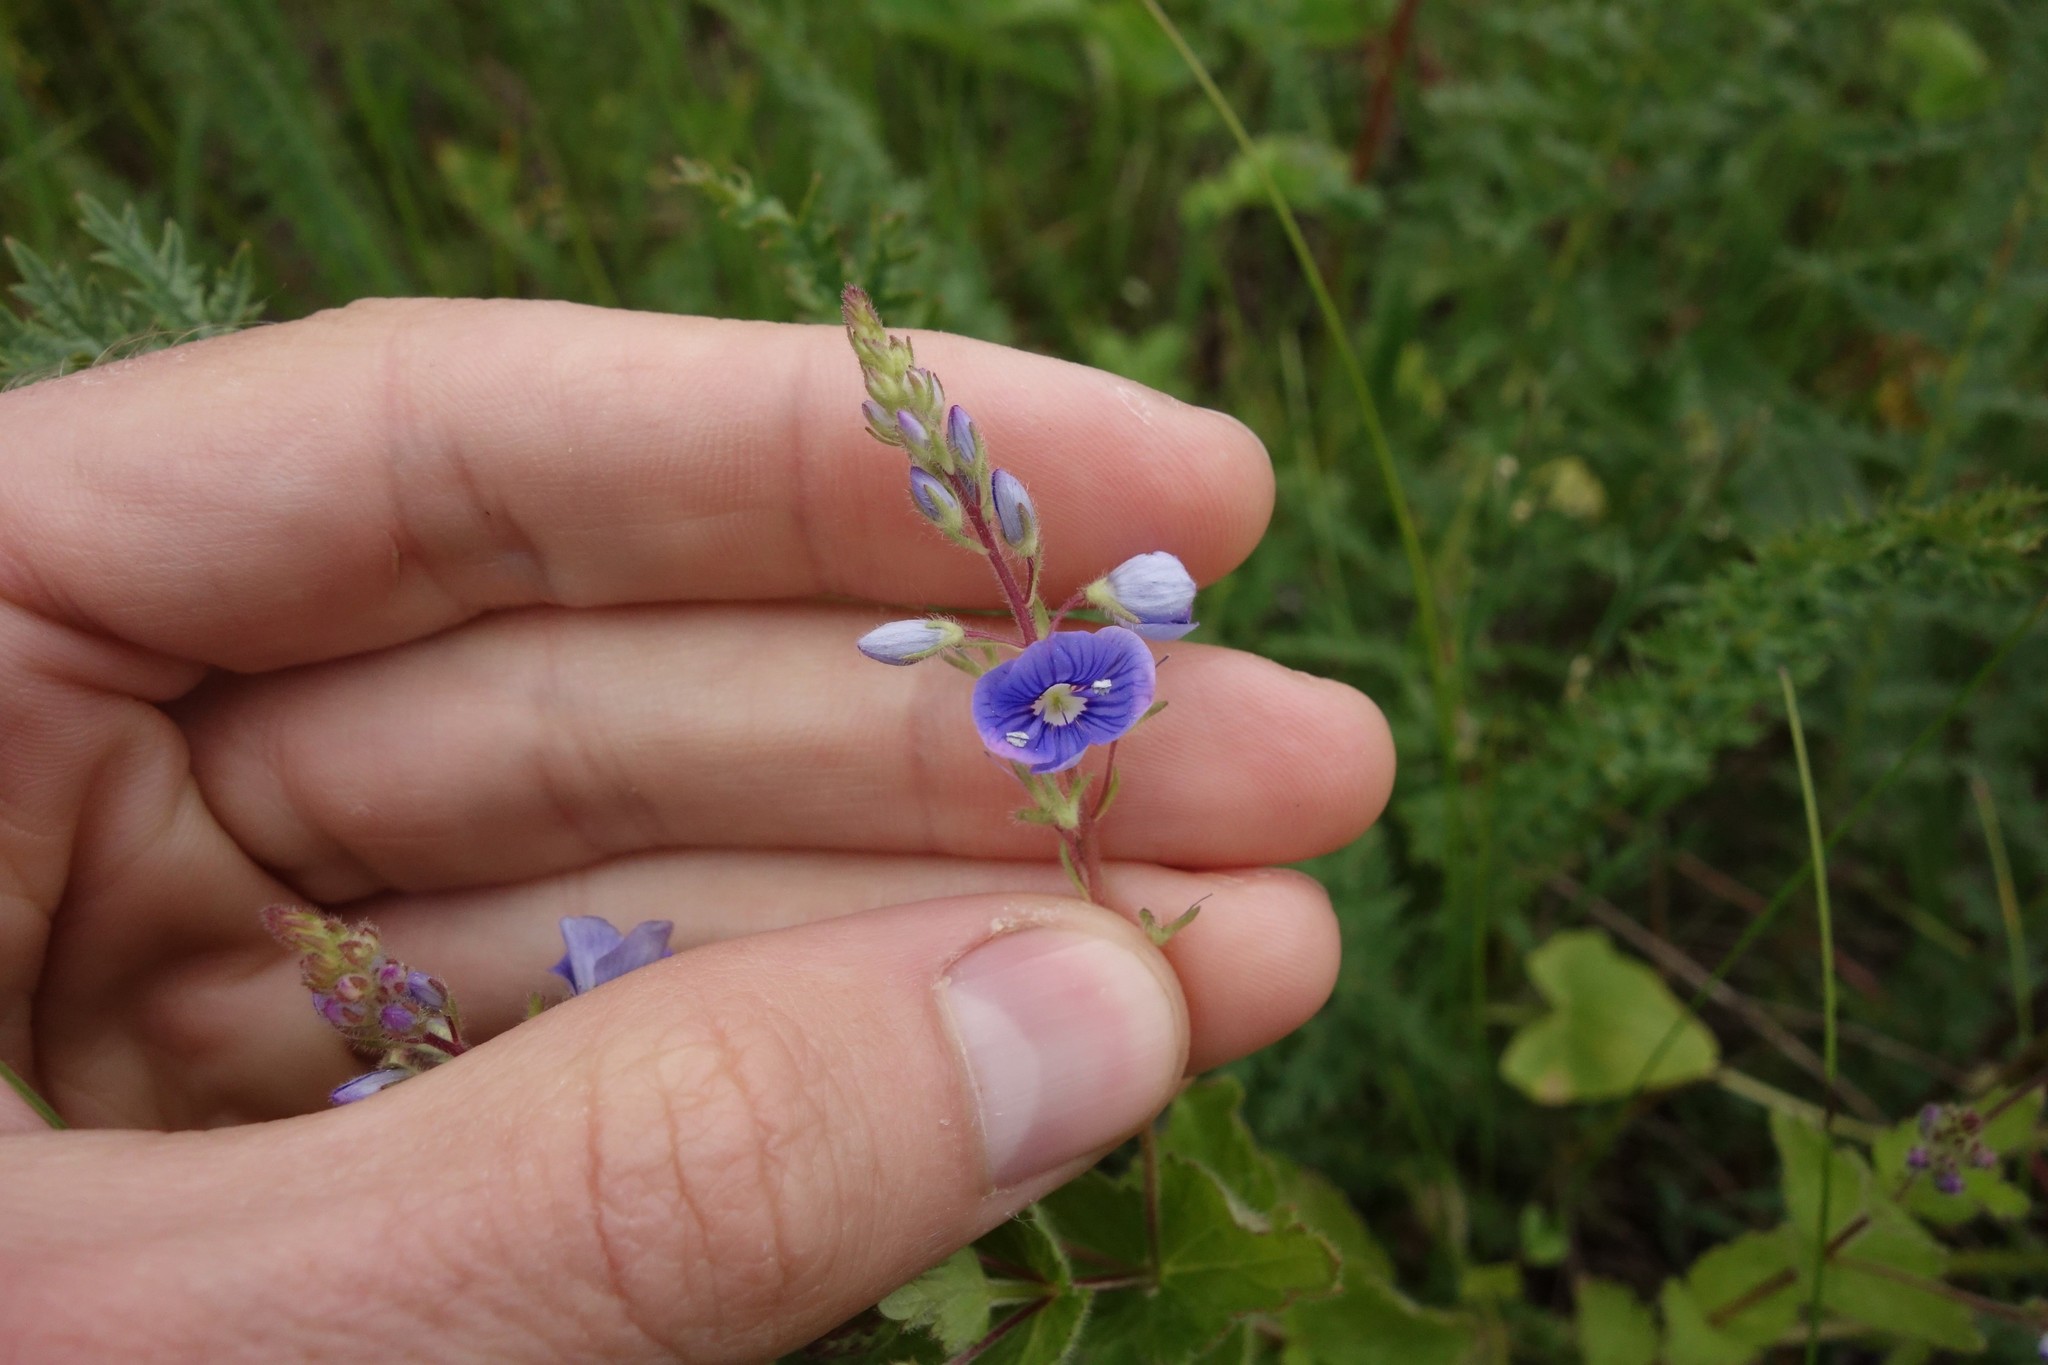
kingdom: Plantae
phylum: Tracheophyta
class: Magnoliopsida
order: Lamiales
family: Plantaginaceae
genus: Veronica
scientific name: Veronica chamaedrys
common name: Germander speedwell
